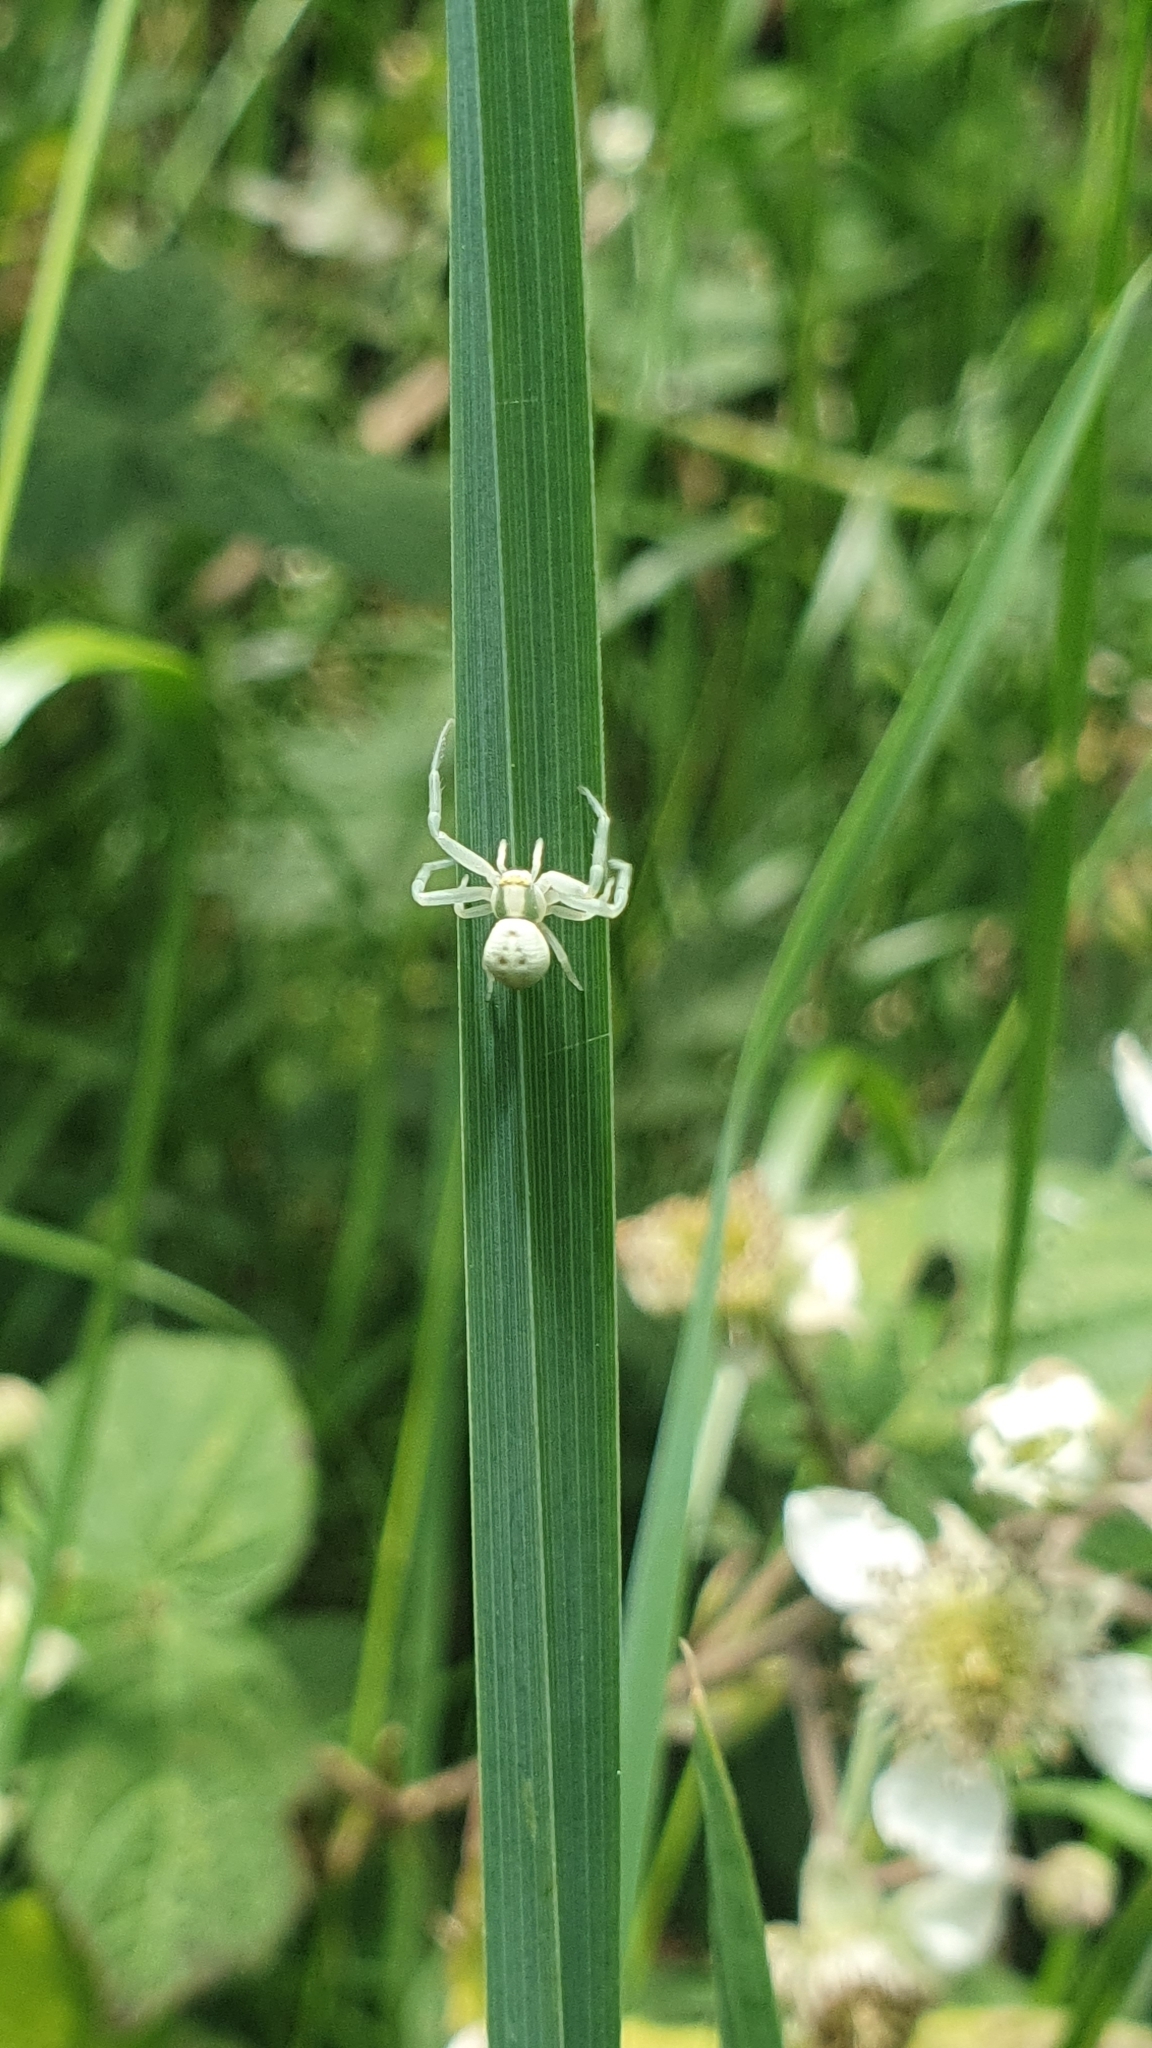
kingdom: Animalia
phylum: Arthropoda
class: Arachnida
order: Araneae
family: Thomisidae
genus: Misumena
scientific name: Misumena vatia
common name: Goldenrod crab spider
